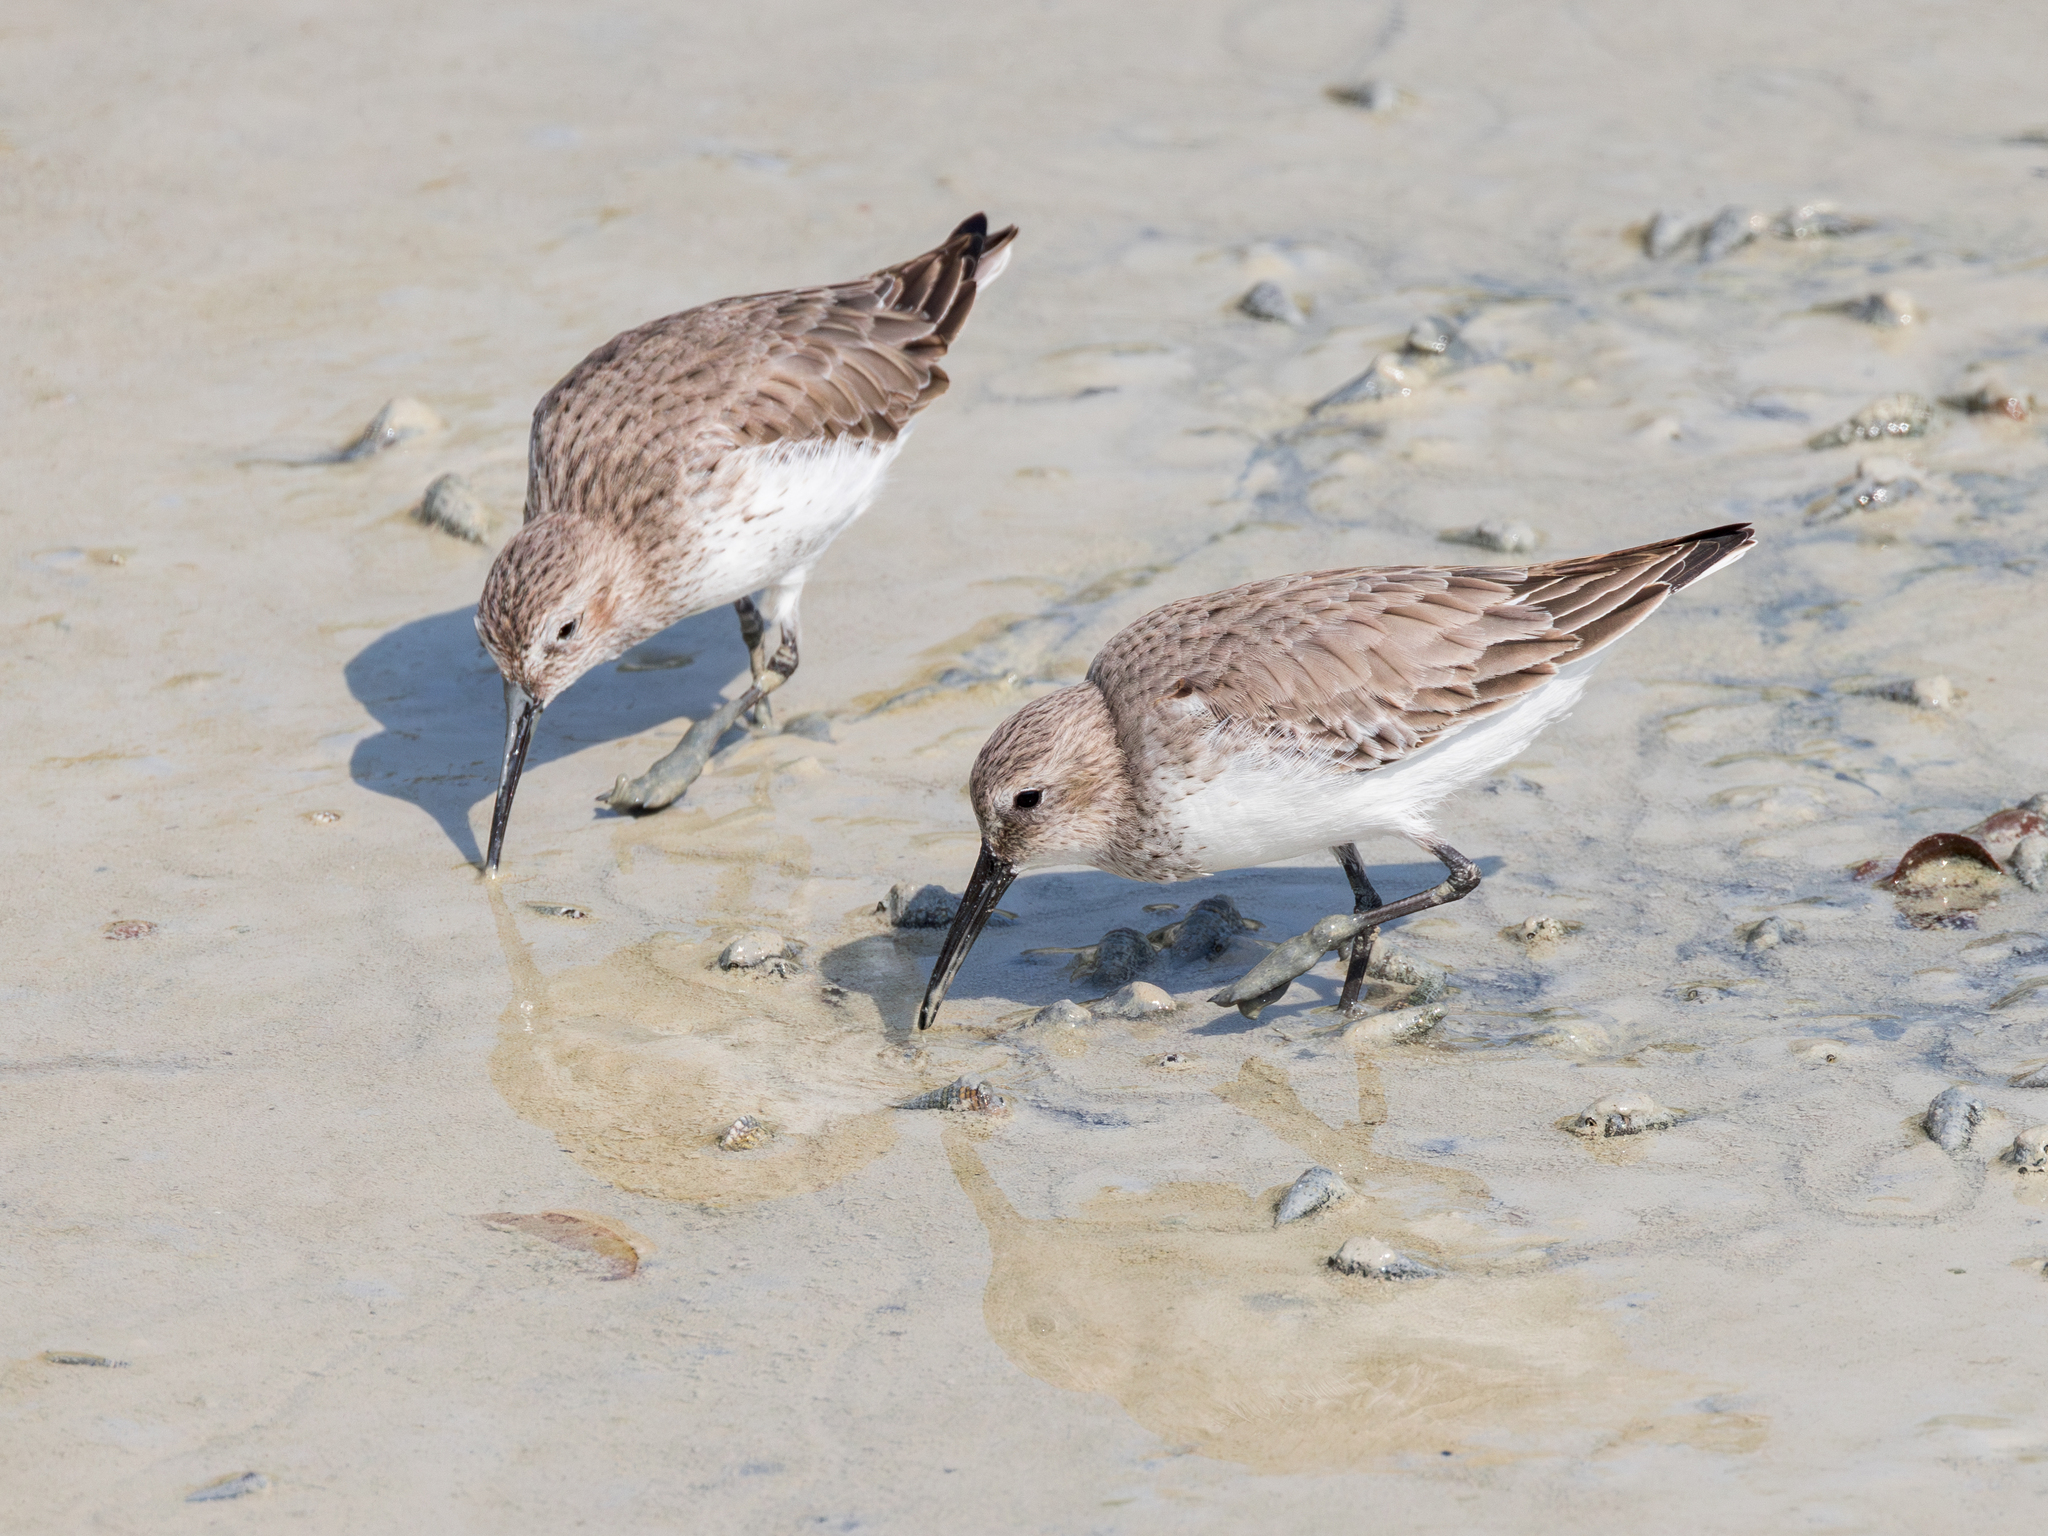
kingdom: Animalia
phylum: Chordata
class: Aves
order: Charadriiformes
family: Scolopacidae
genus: Calidris
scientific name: Calidris alpina
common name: Dunlin
